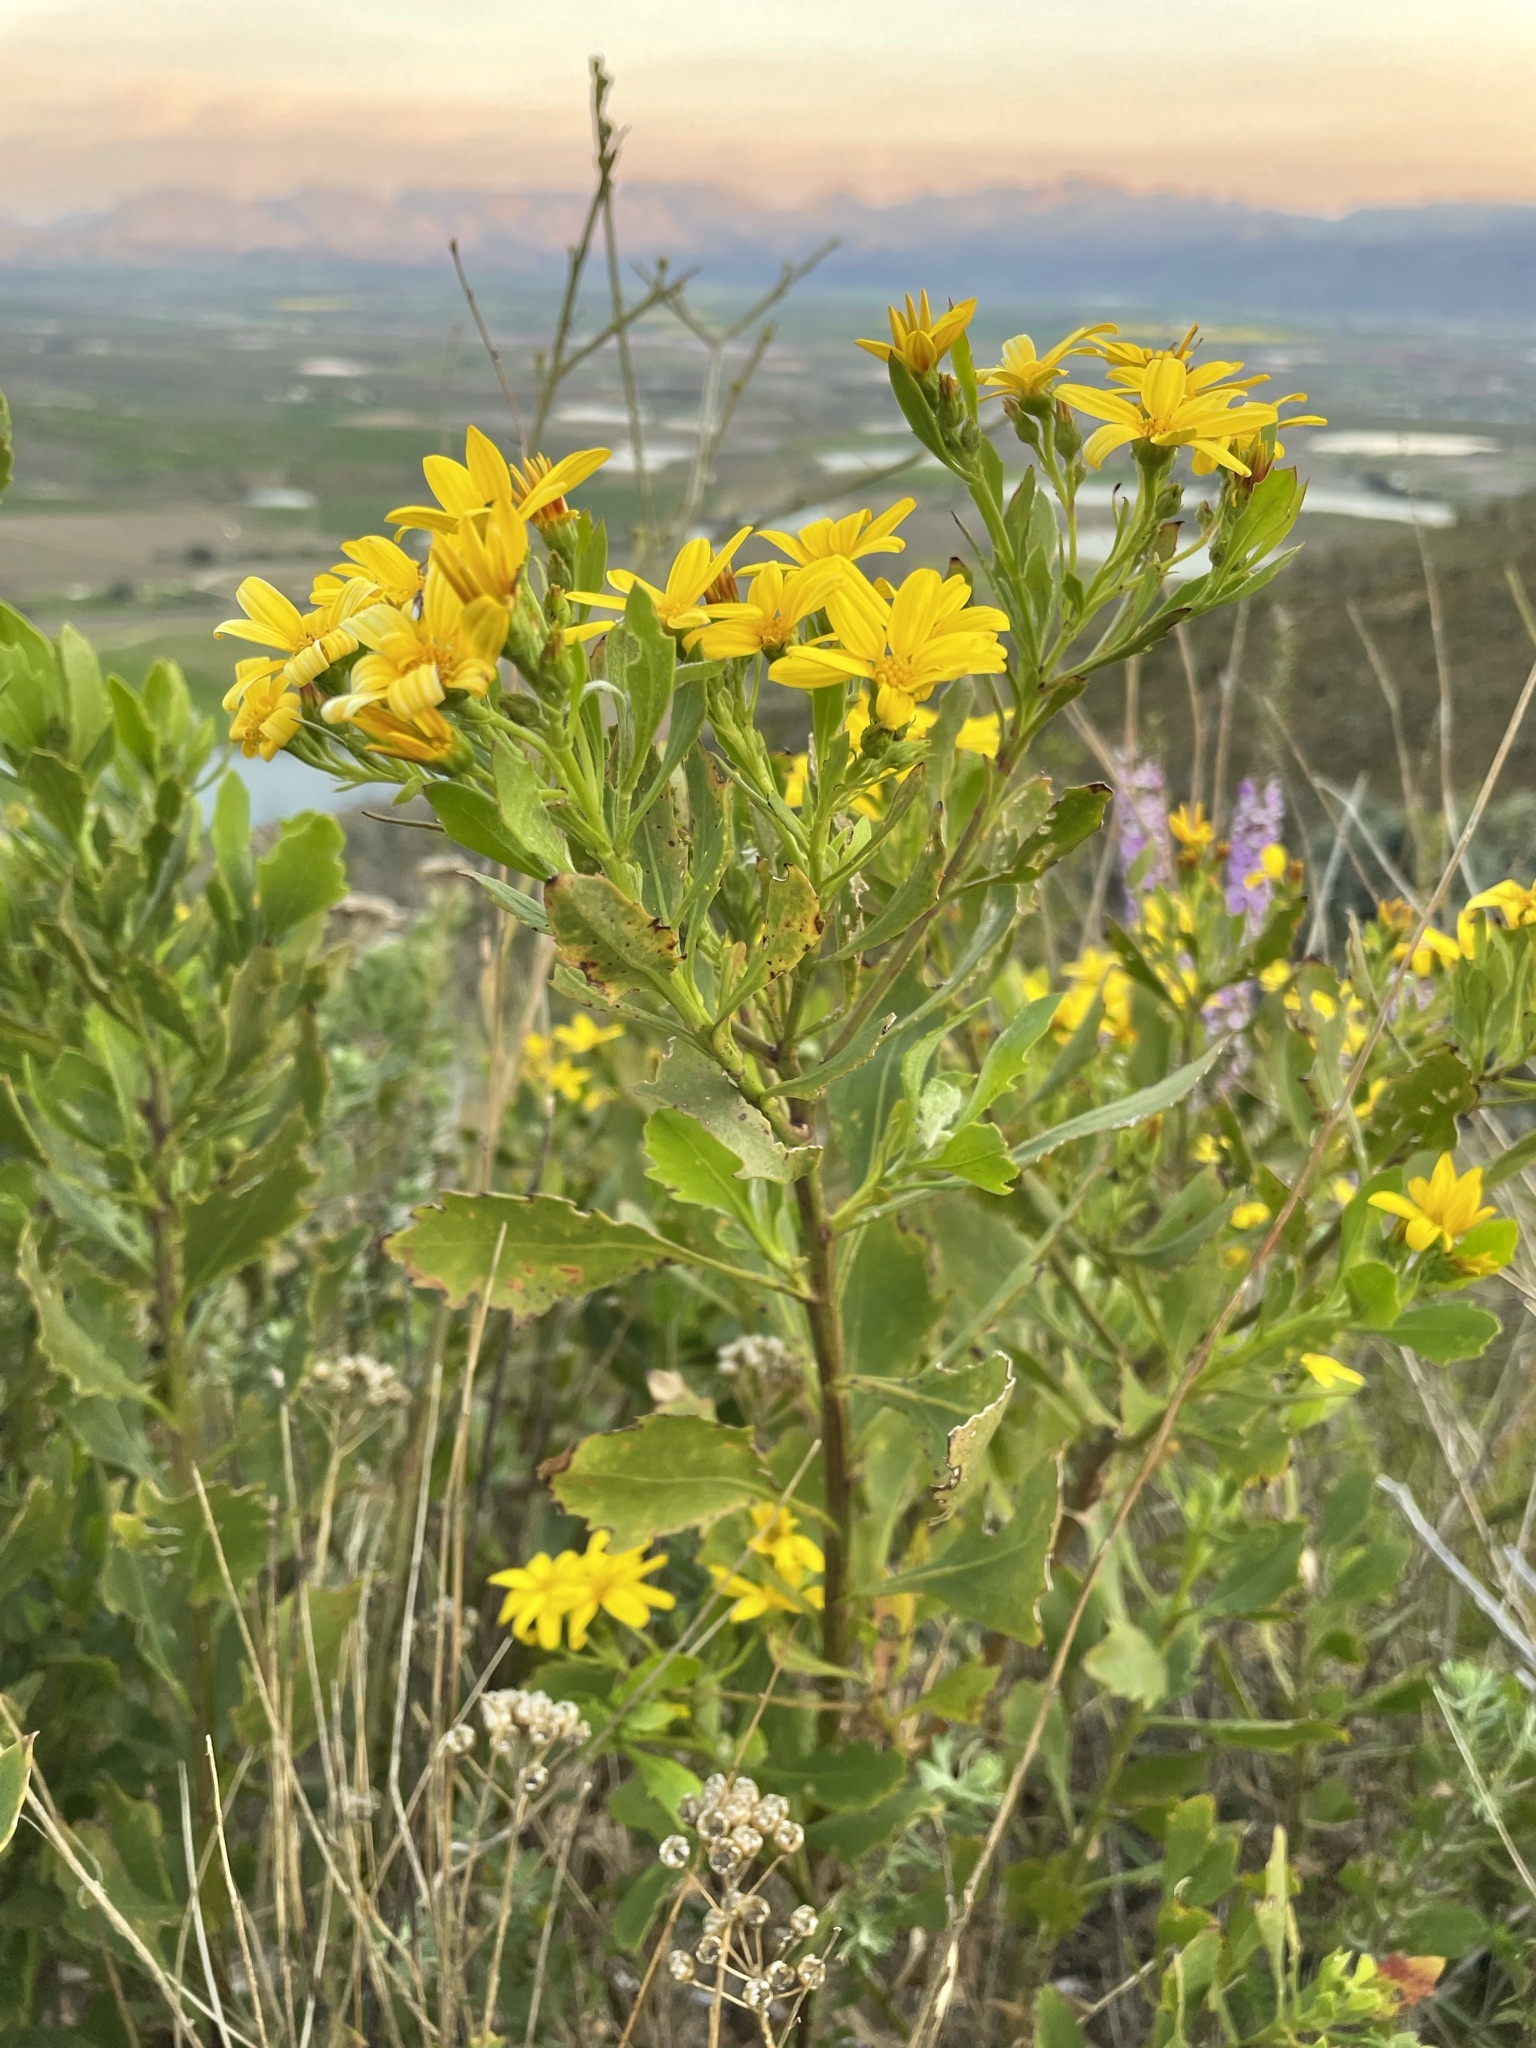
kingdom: Plantae
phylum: Tracheophyta
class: Magnoliopsida
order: Asterales
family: Asteraceae
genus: Osteospermum
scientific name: Osteospermum moniliferum
